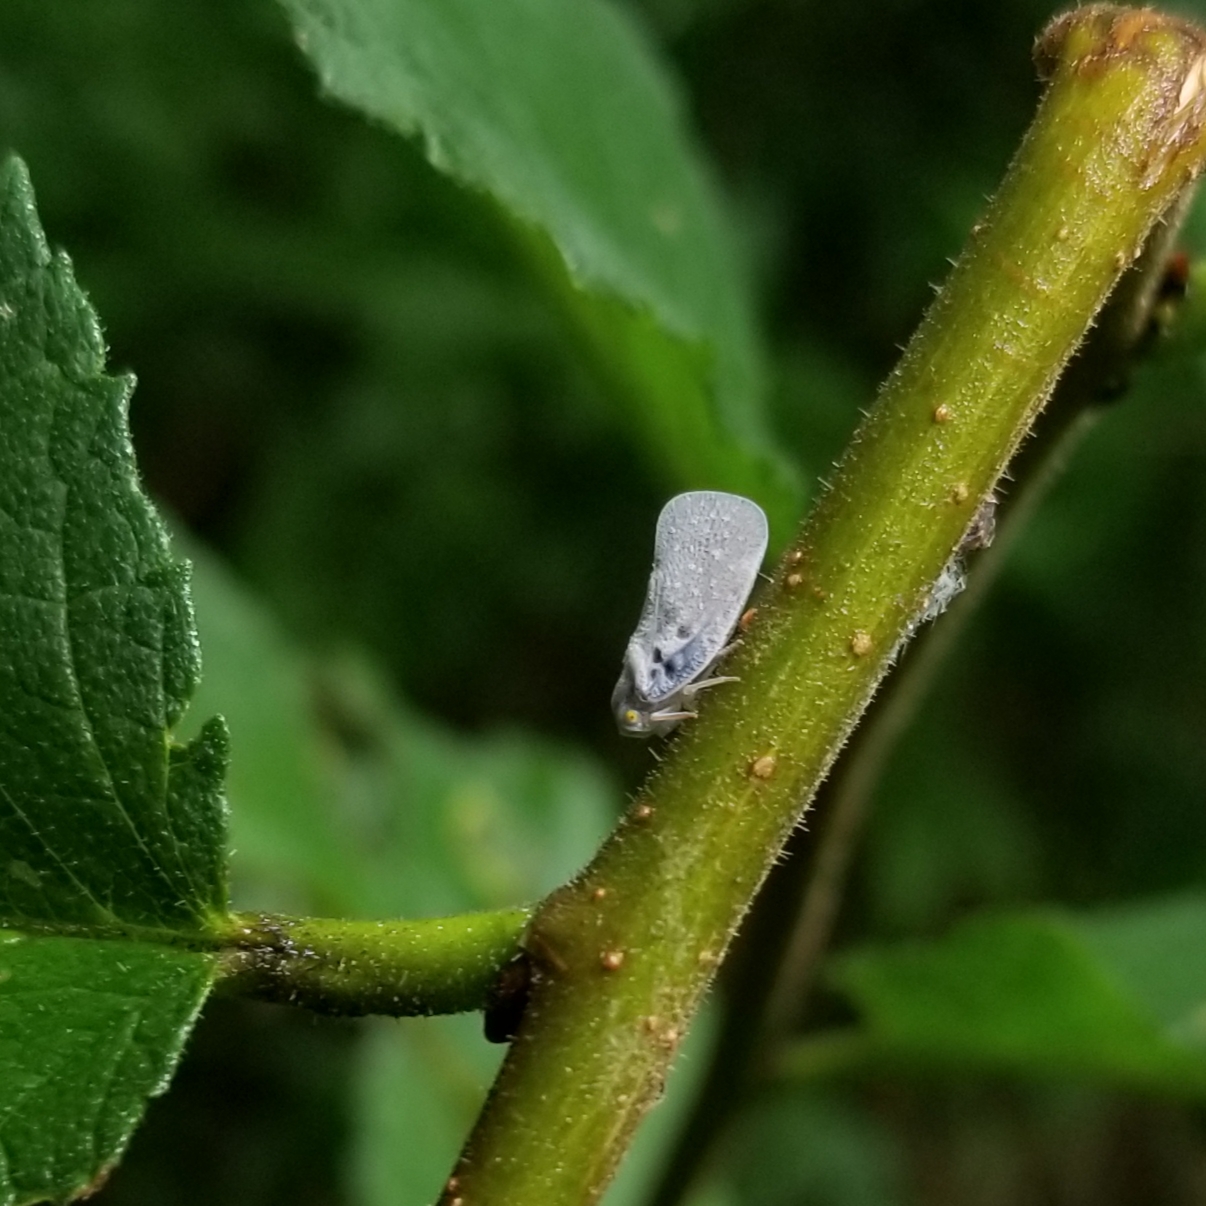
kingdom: Animalia
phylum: Arthropoda
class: Insecta
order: Hemiptera
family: Flatidae
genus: Metcalfa
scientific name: Metcalfa pruinosa
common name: Citrus flatid planthopper
